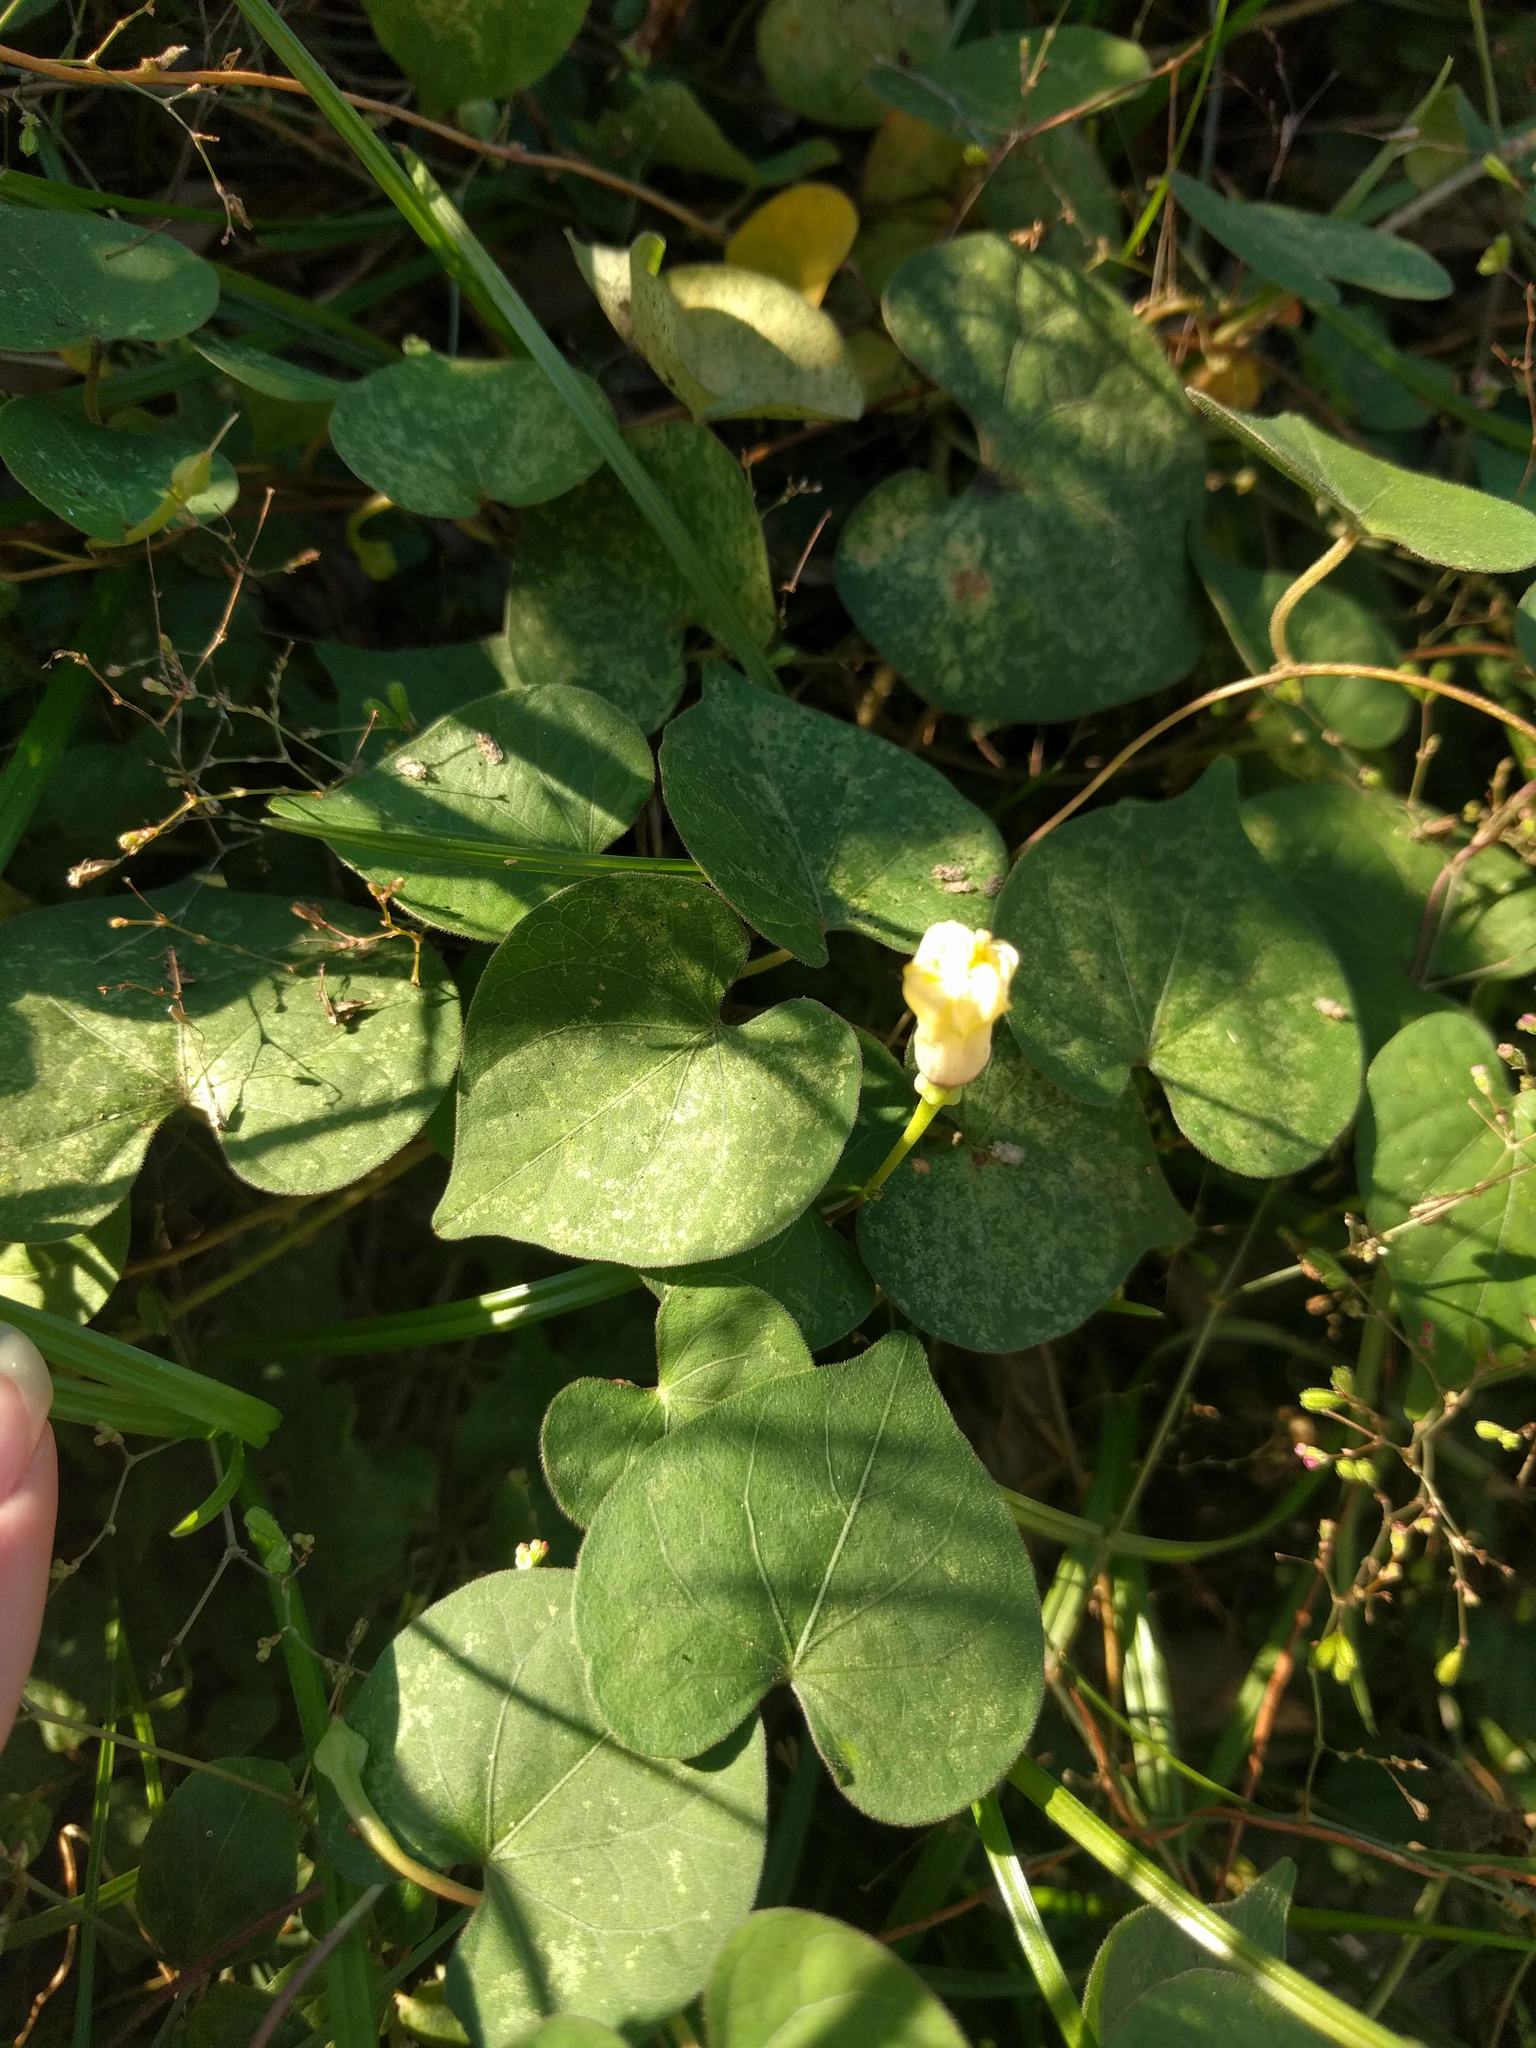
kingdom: Plantae
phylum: Tracheophyta
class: Magnoliopsida
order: Solanales
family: Convolvulaceae
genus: Ipomoea
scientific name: Ipomoea obscura
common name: Obscure morning-glory
